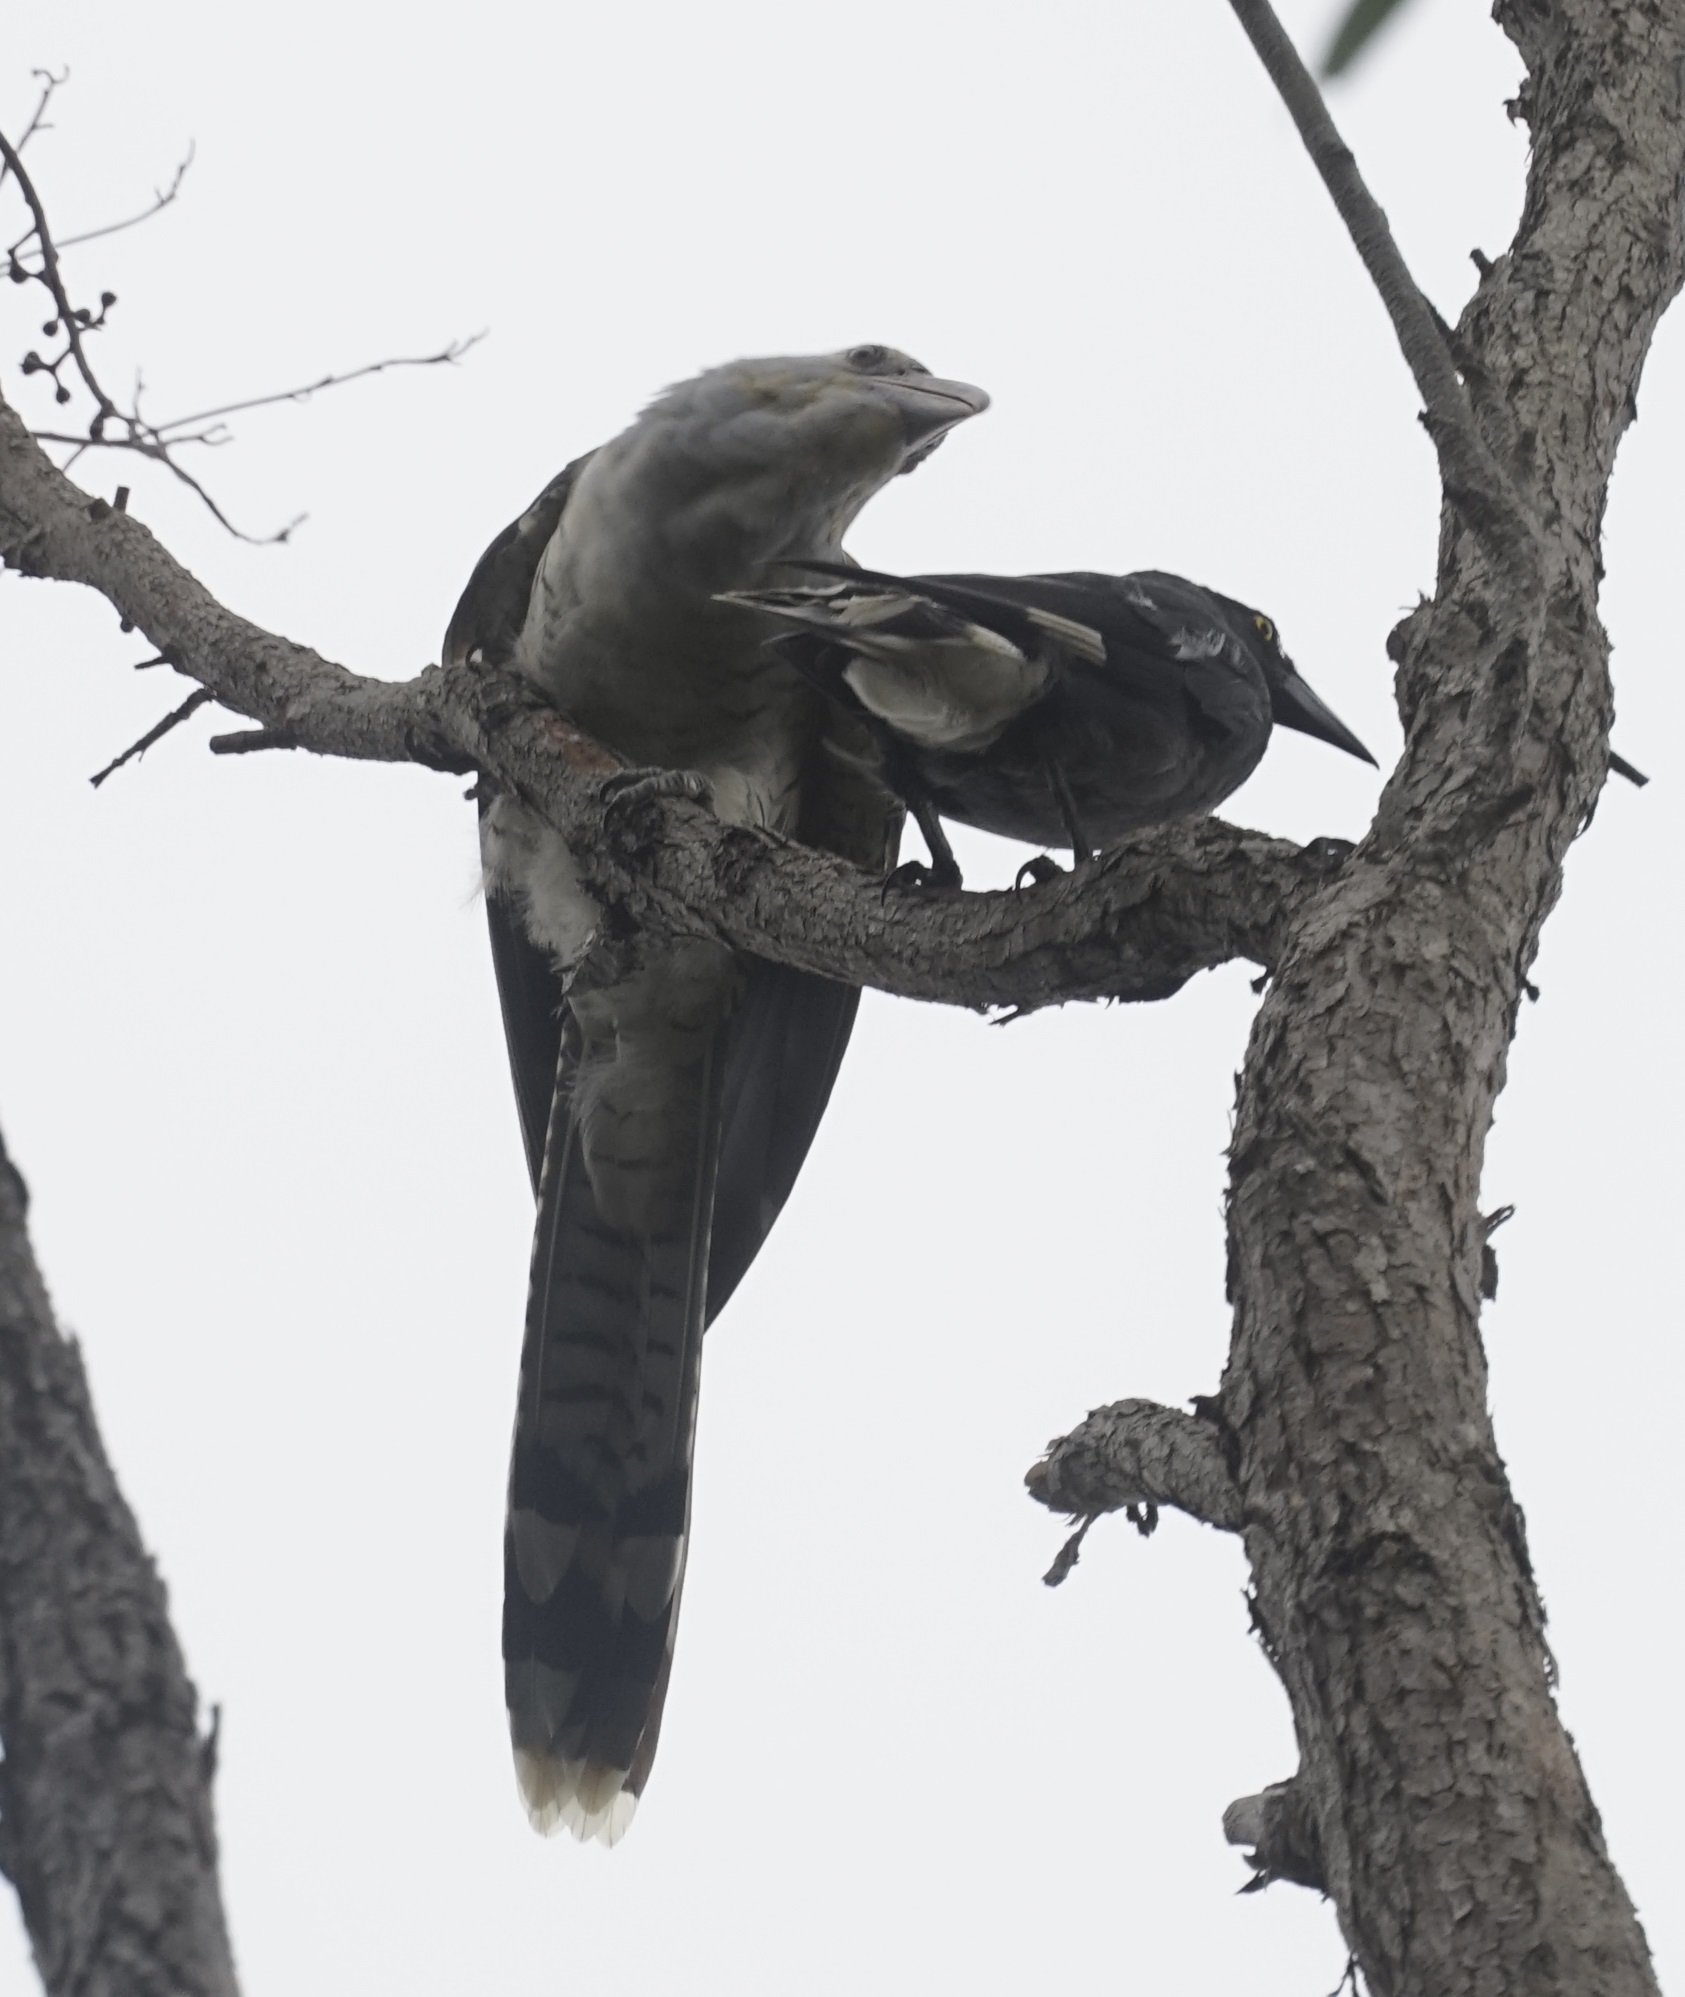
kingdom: Animalia
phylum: Chordata
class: Aves
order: Passeriformes
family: Cracticidae
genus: Strepera
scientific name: Strepera graculina
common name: Pied currawong
